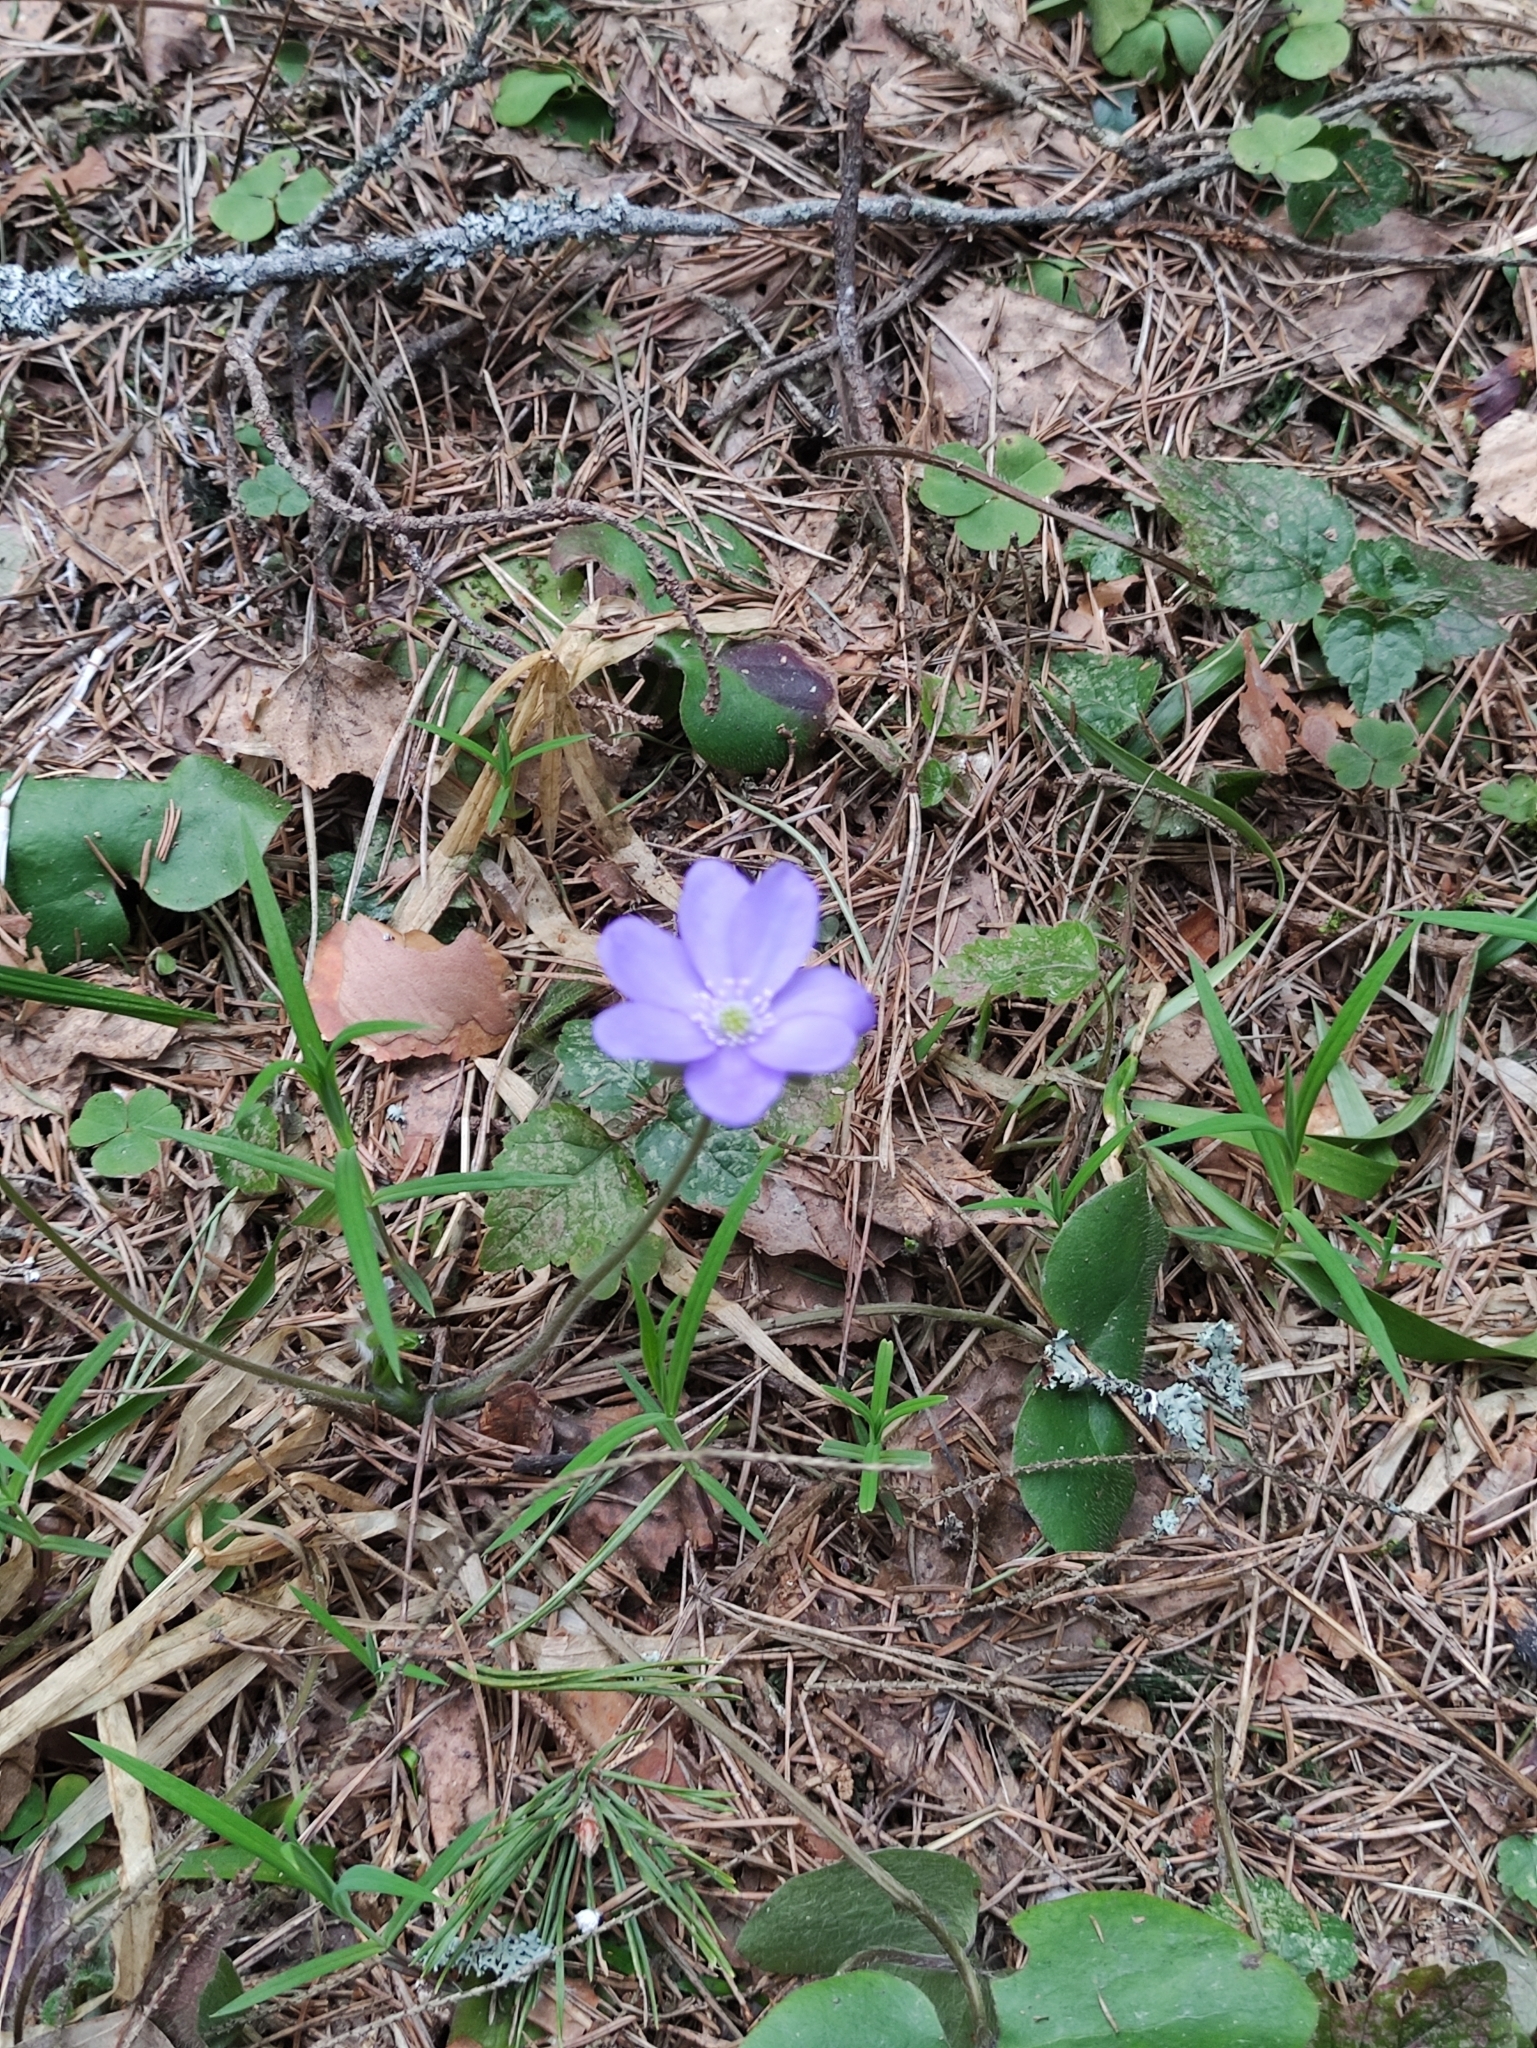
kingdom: Plantae
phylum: Tracheophyta
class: Magnoliopsida
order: Ranunculales
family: Ranunculaceae
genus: Hepatica
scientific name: Hepatica nobilis
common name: Liverleaf
